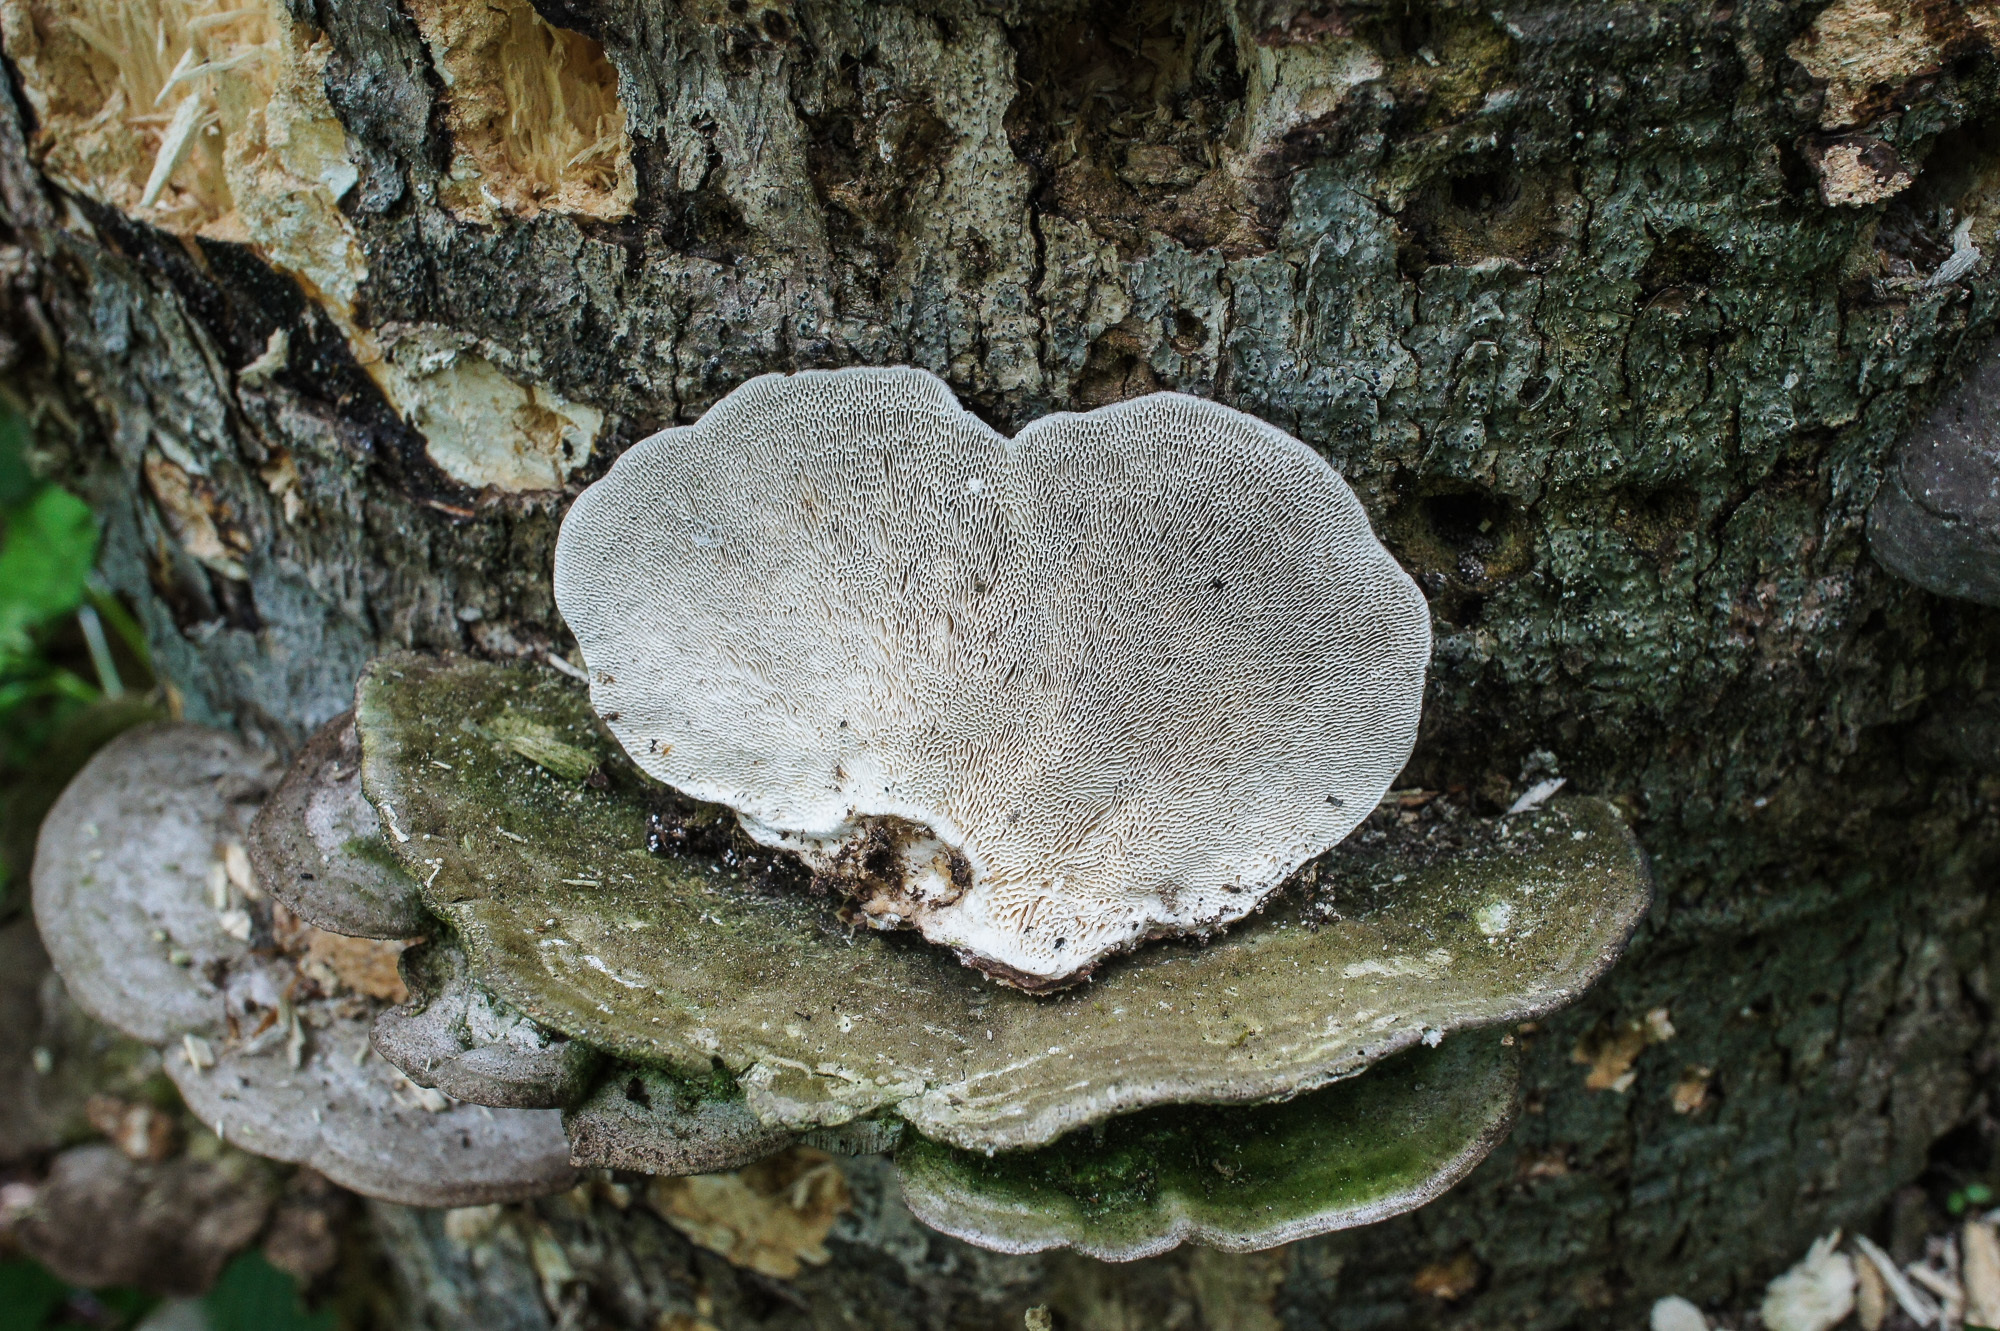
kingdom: Fungi
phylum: Basidiomycota
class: Agaricomycetes
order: Polyporales
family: Polyporaceae
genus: Trametes
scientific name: Trametes gibbosa
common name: Lumpy bracket
